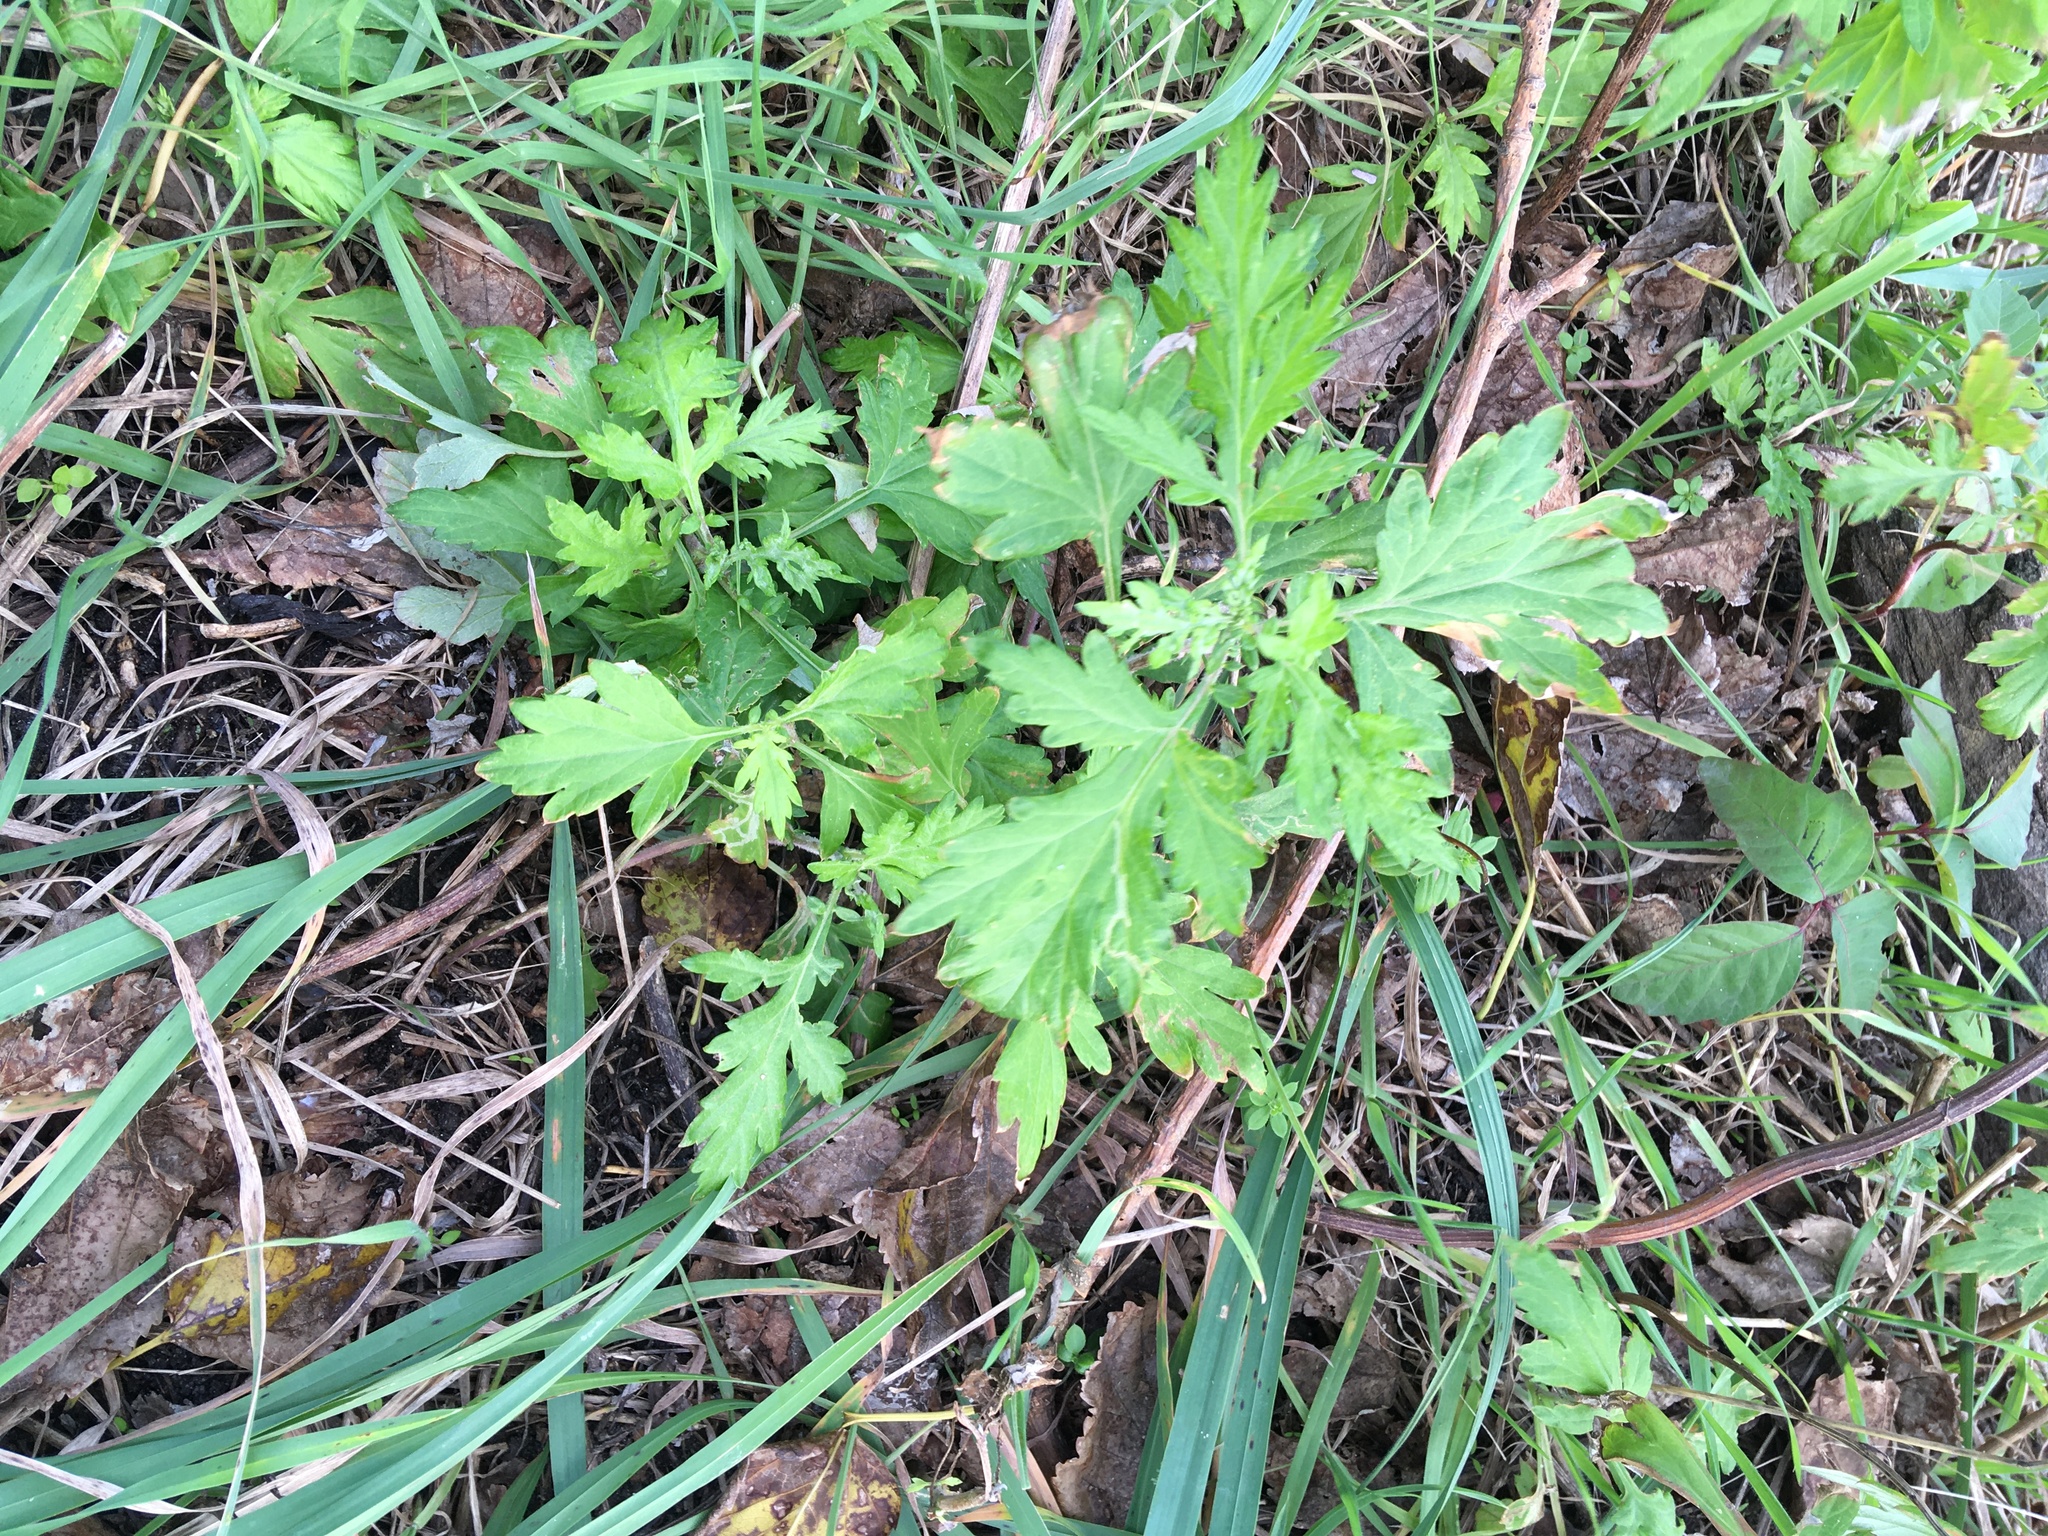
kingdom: Plantae
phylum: Tracheophyta
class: Magnoliopsida
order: Asterales
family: Asteraceae
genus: Artemisia
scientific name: Artemisia vulgaris
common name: Mugwort
